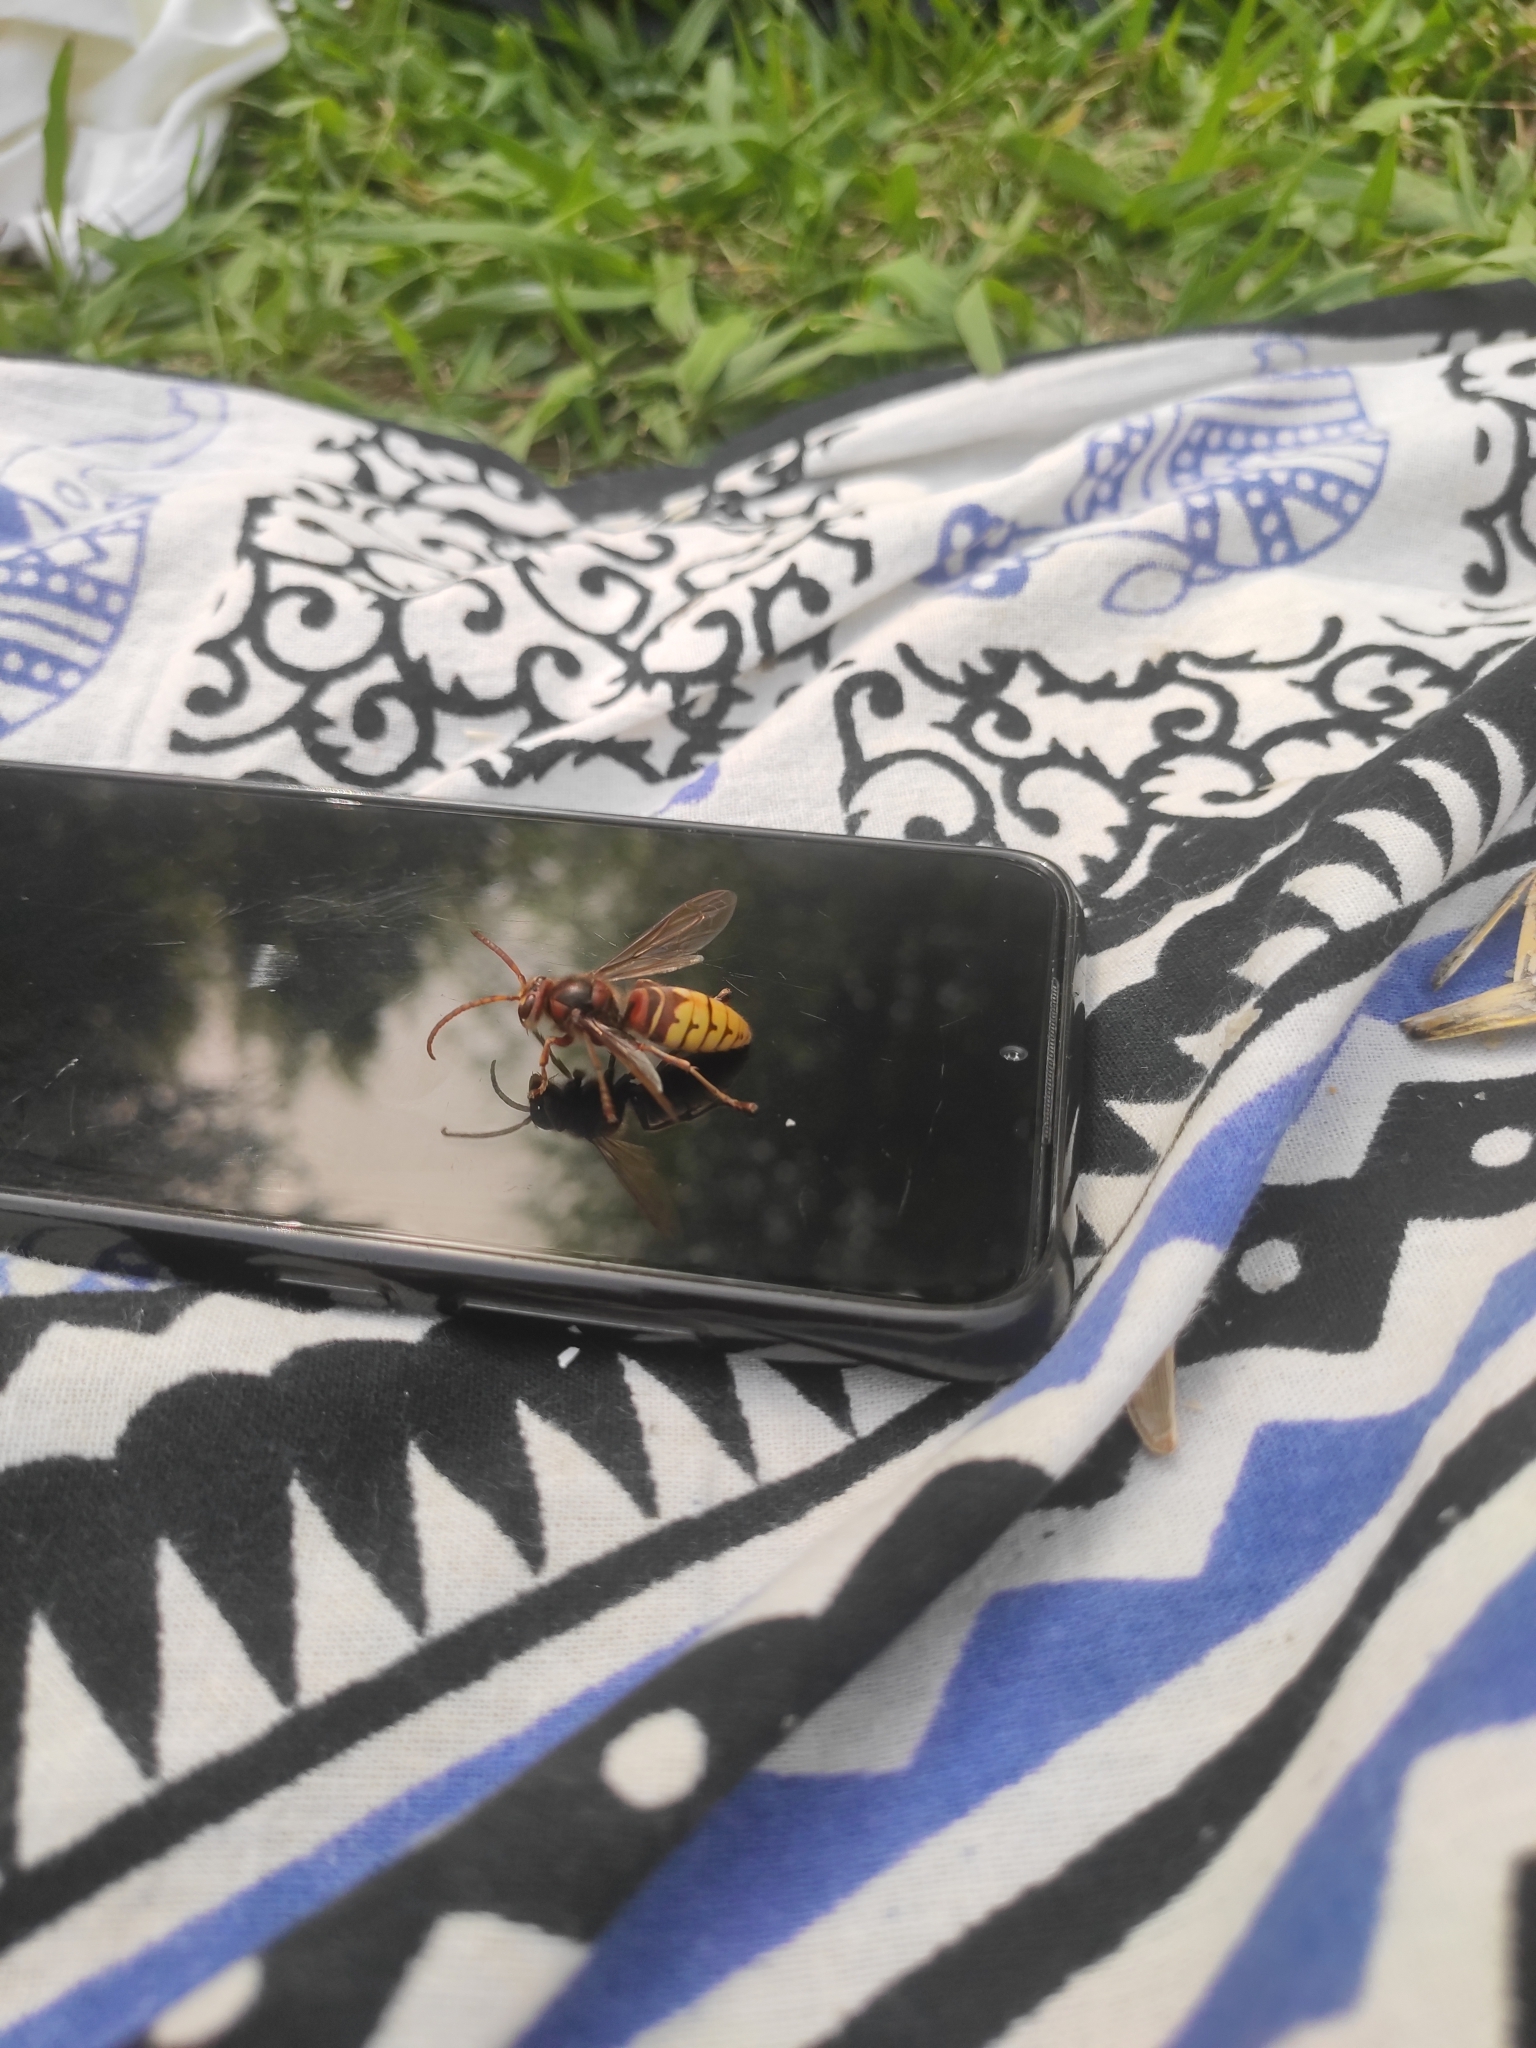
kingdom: Animalia
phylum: Arthropoda
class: Insecta
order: Hymenoptera
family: Vespidae
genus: Vespa
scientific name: Vespa crabro
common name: Hornet
